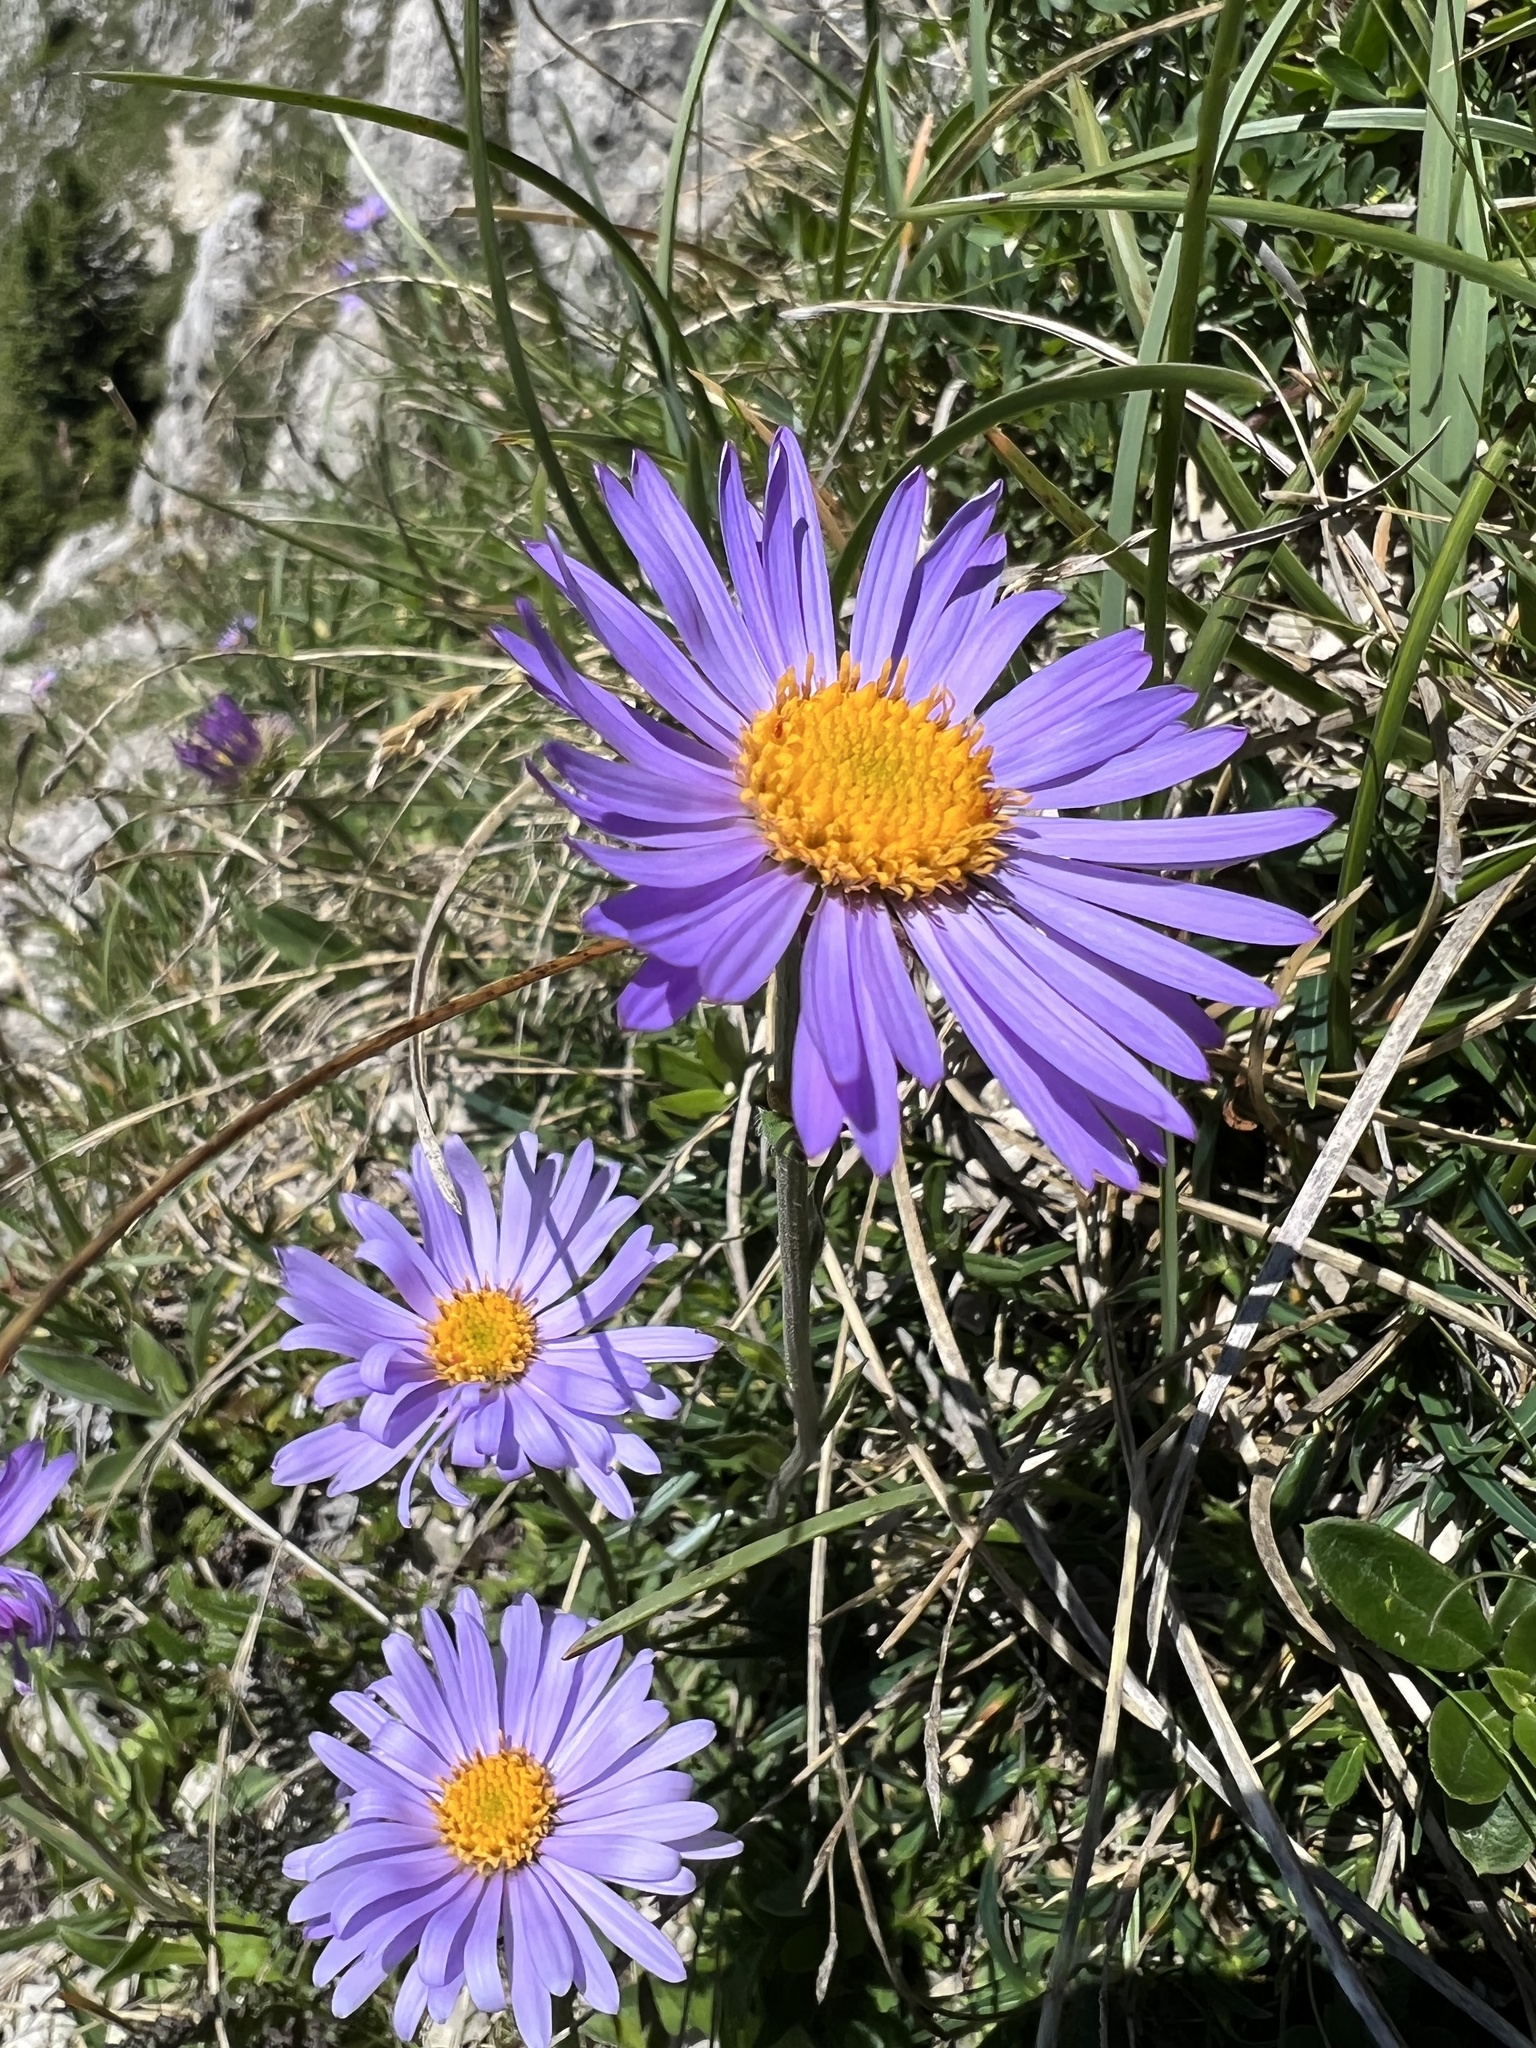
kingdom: Plantae
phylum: Tracheophyta
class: Magnoliopsida
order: Asterales
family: Asteraceae
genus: Aster
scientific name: Aster alpinus
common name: Alpine aster
